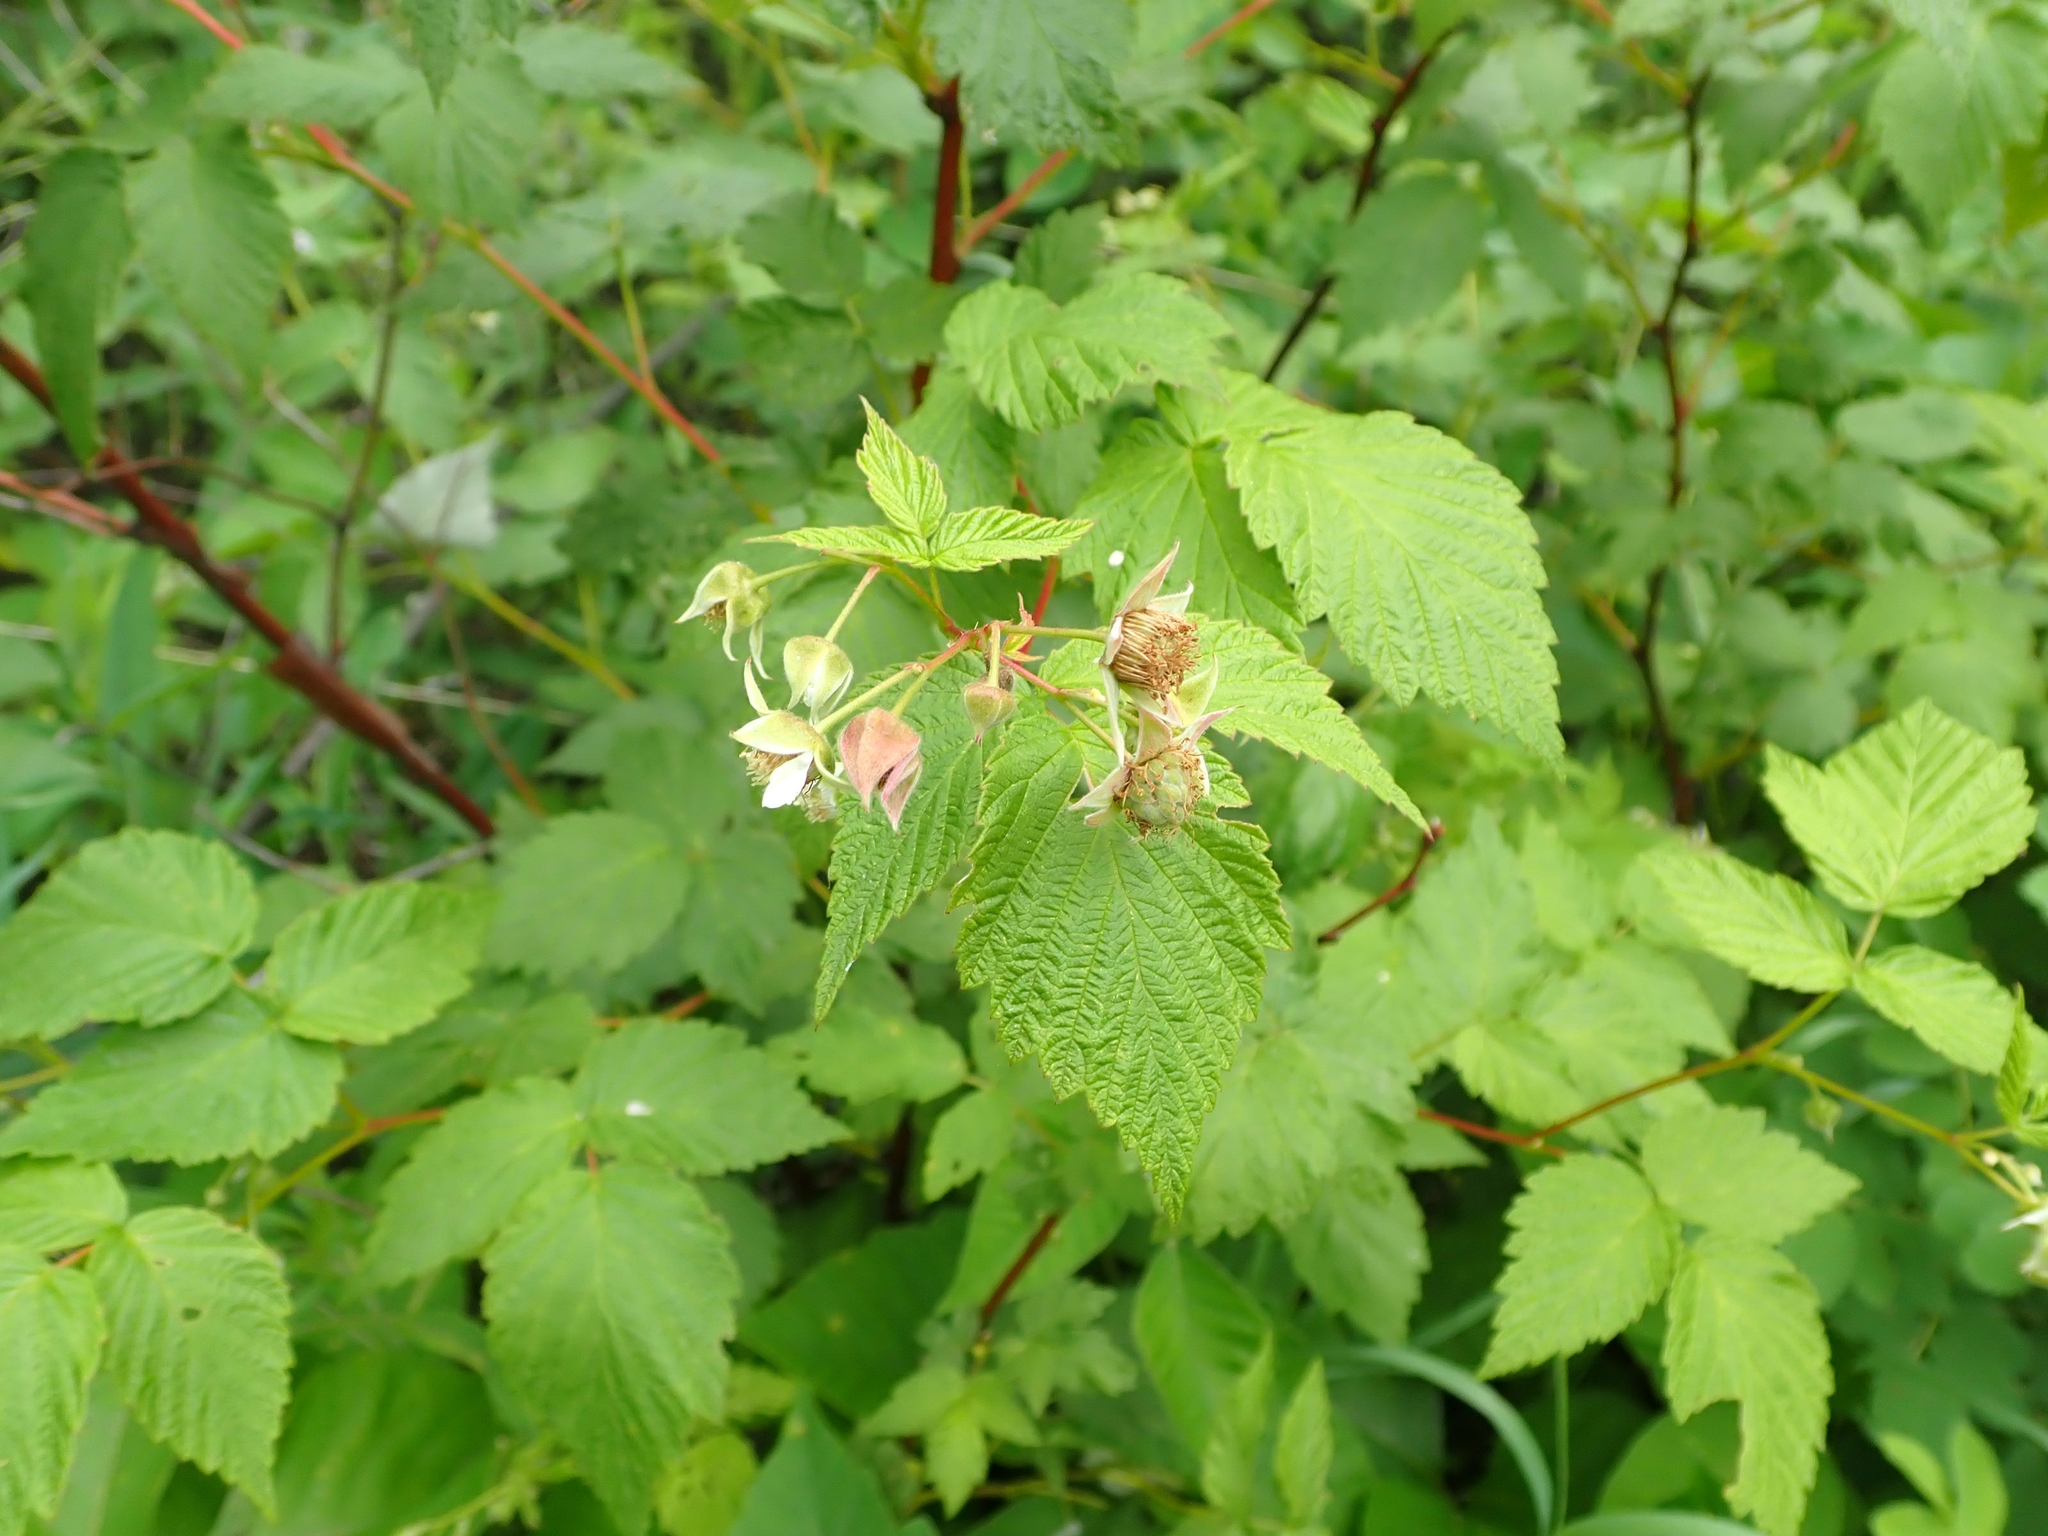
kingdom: Plantae
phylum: Tracheophyta
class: Magnoliopsida
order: Rosales
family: Rosaceae
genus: Rubus
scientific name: Rubus idaeus
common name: Raspberry
